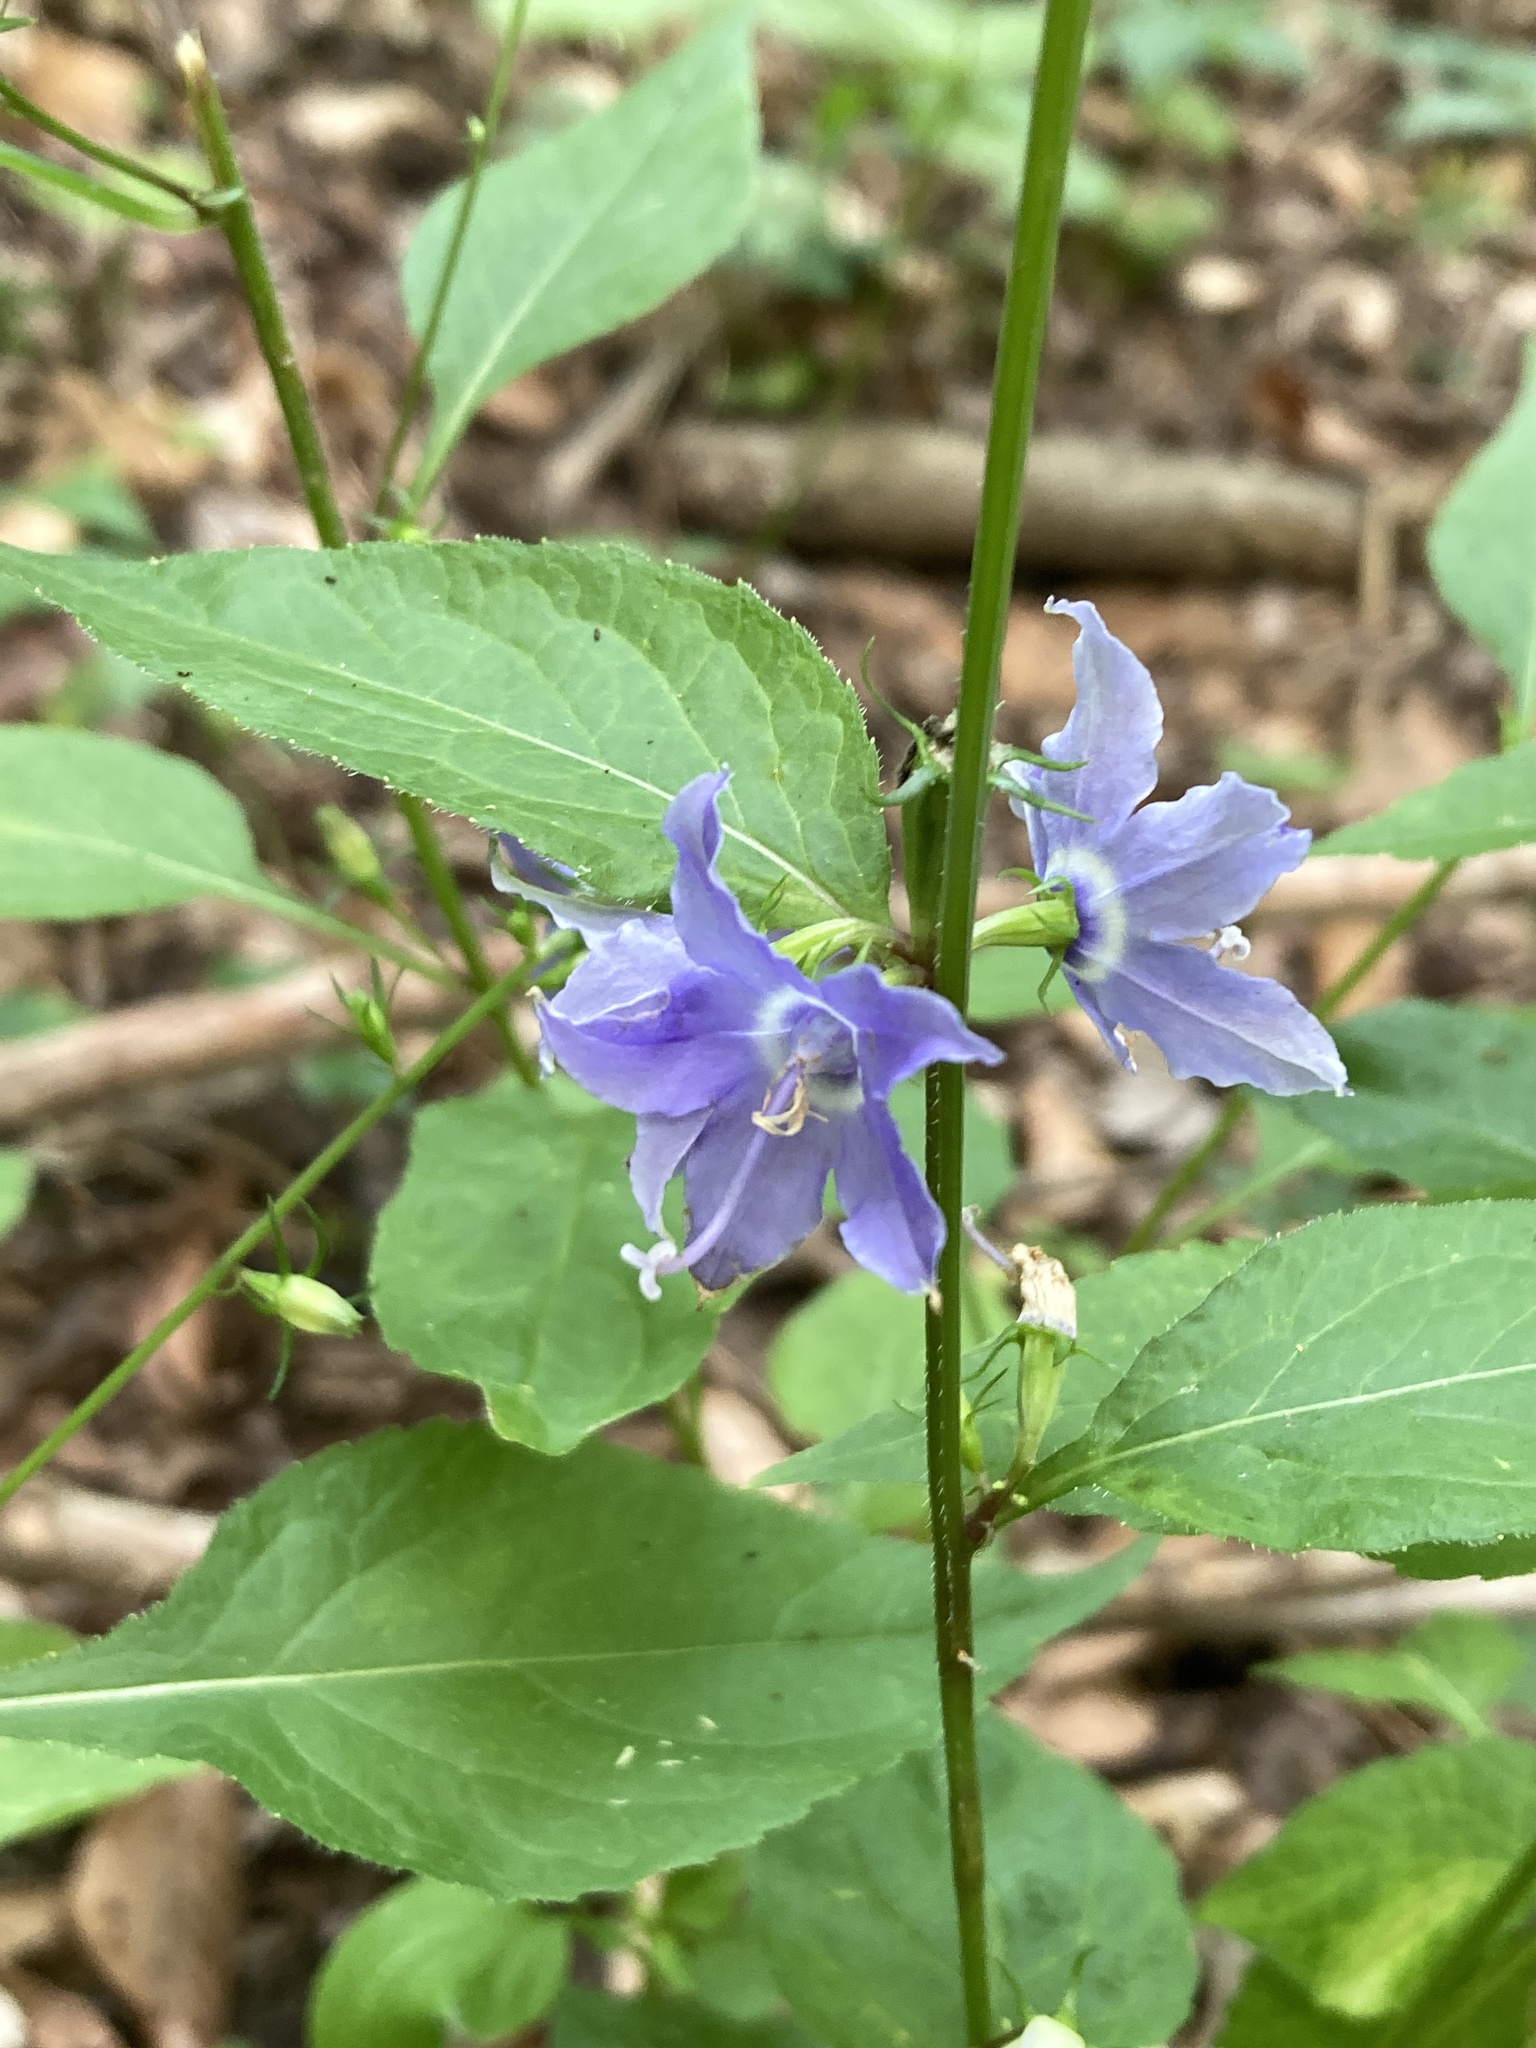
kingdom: Plantae
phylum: Tracheophyta
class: Magnoliopsida
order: Asterales
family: Campanulaceae
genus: Campanulastrum
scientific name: Campanulastrum americanum
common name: American bellflower
